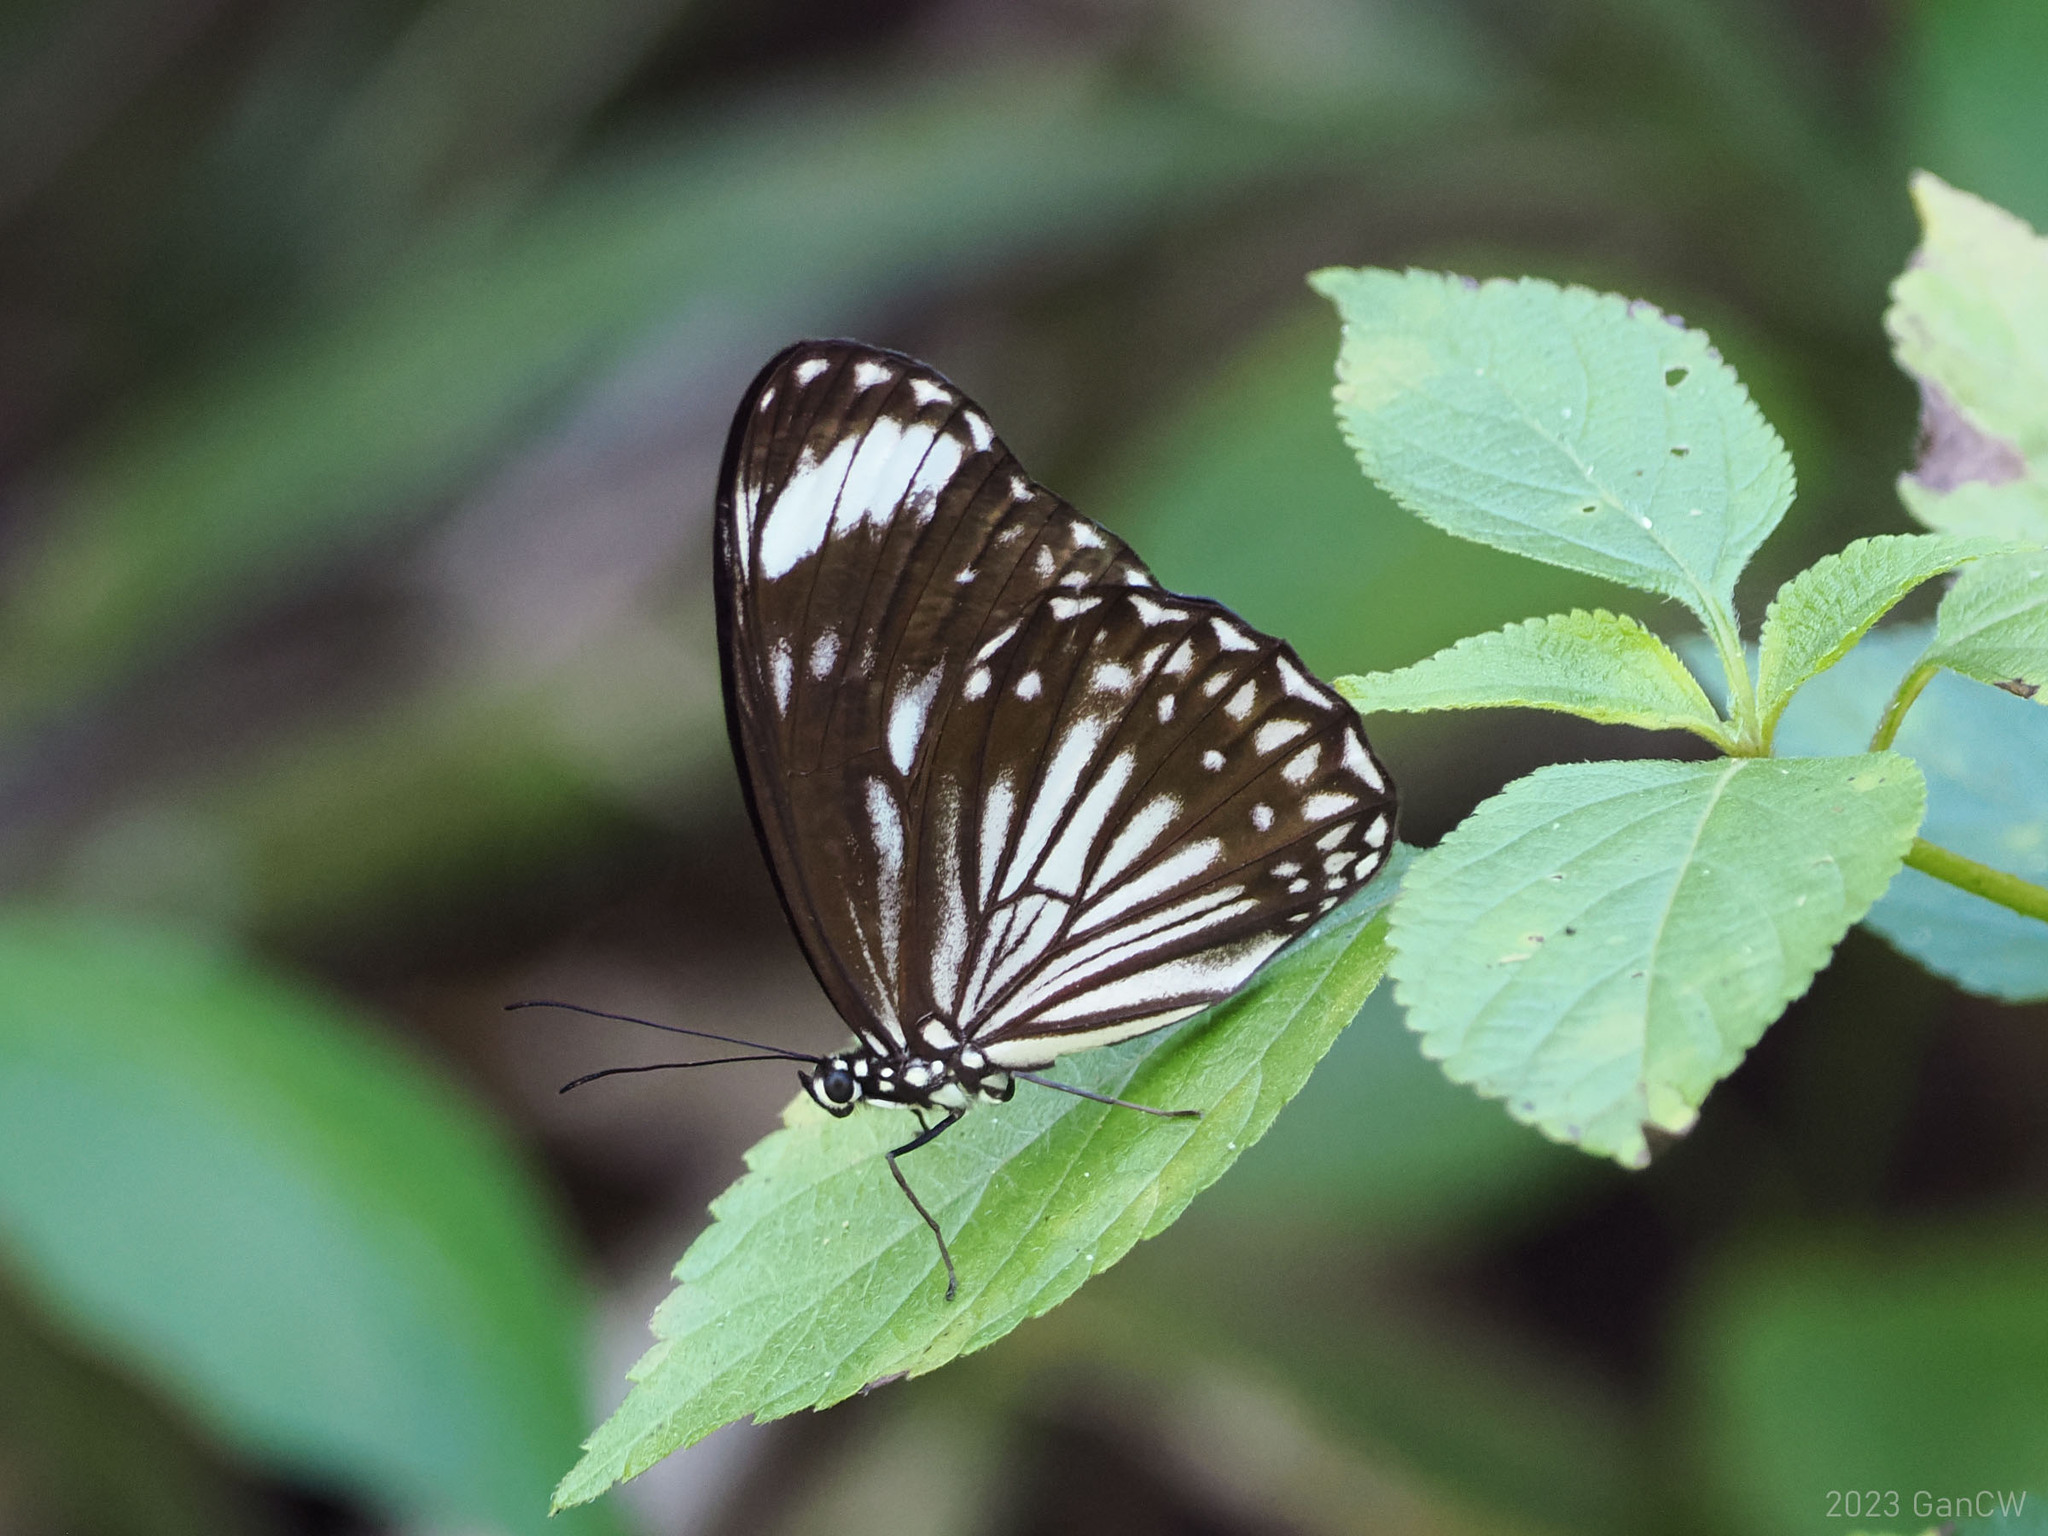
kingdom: Animalia
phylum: Arthropoda
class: Insecta
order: Lepidoptera
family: Nymphalidae
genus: Zethera
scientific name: Zethera pimplea
